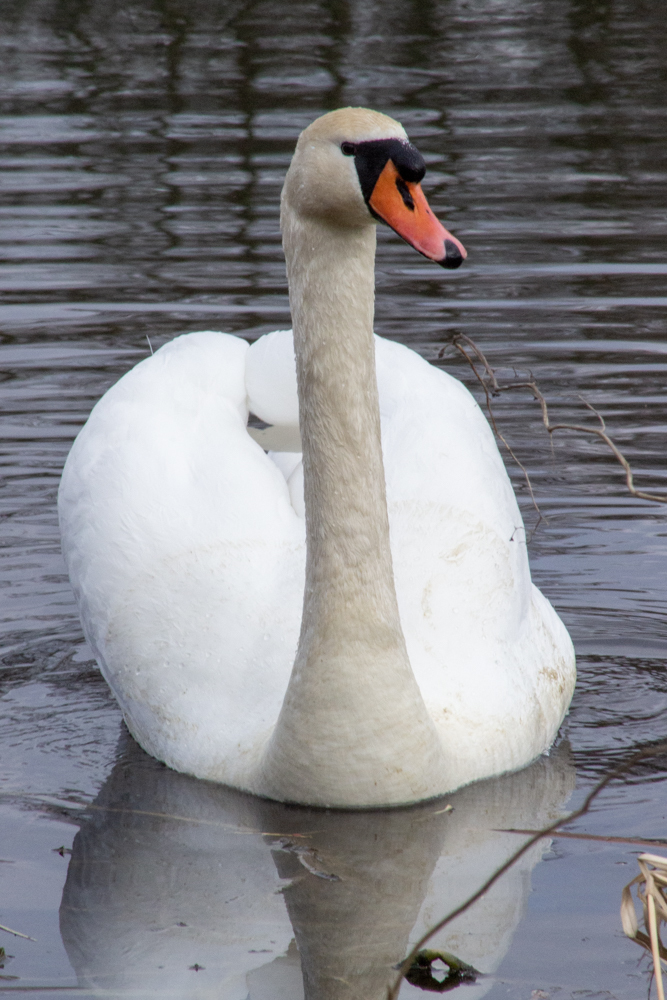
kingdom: Animalia
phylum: Chordata
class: Aves
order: Anseriformes
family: Anatidae
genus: Cygnus
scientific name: Cygnus olor
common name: Mute swan
